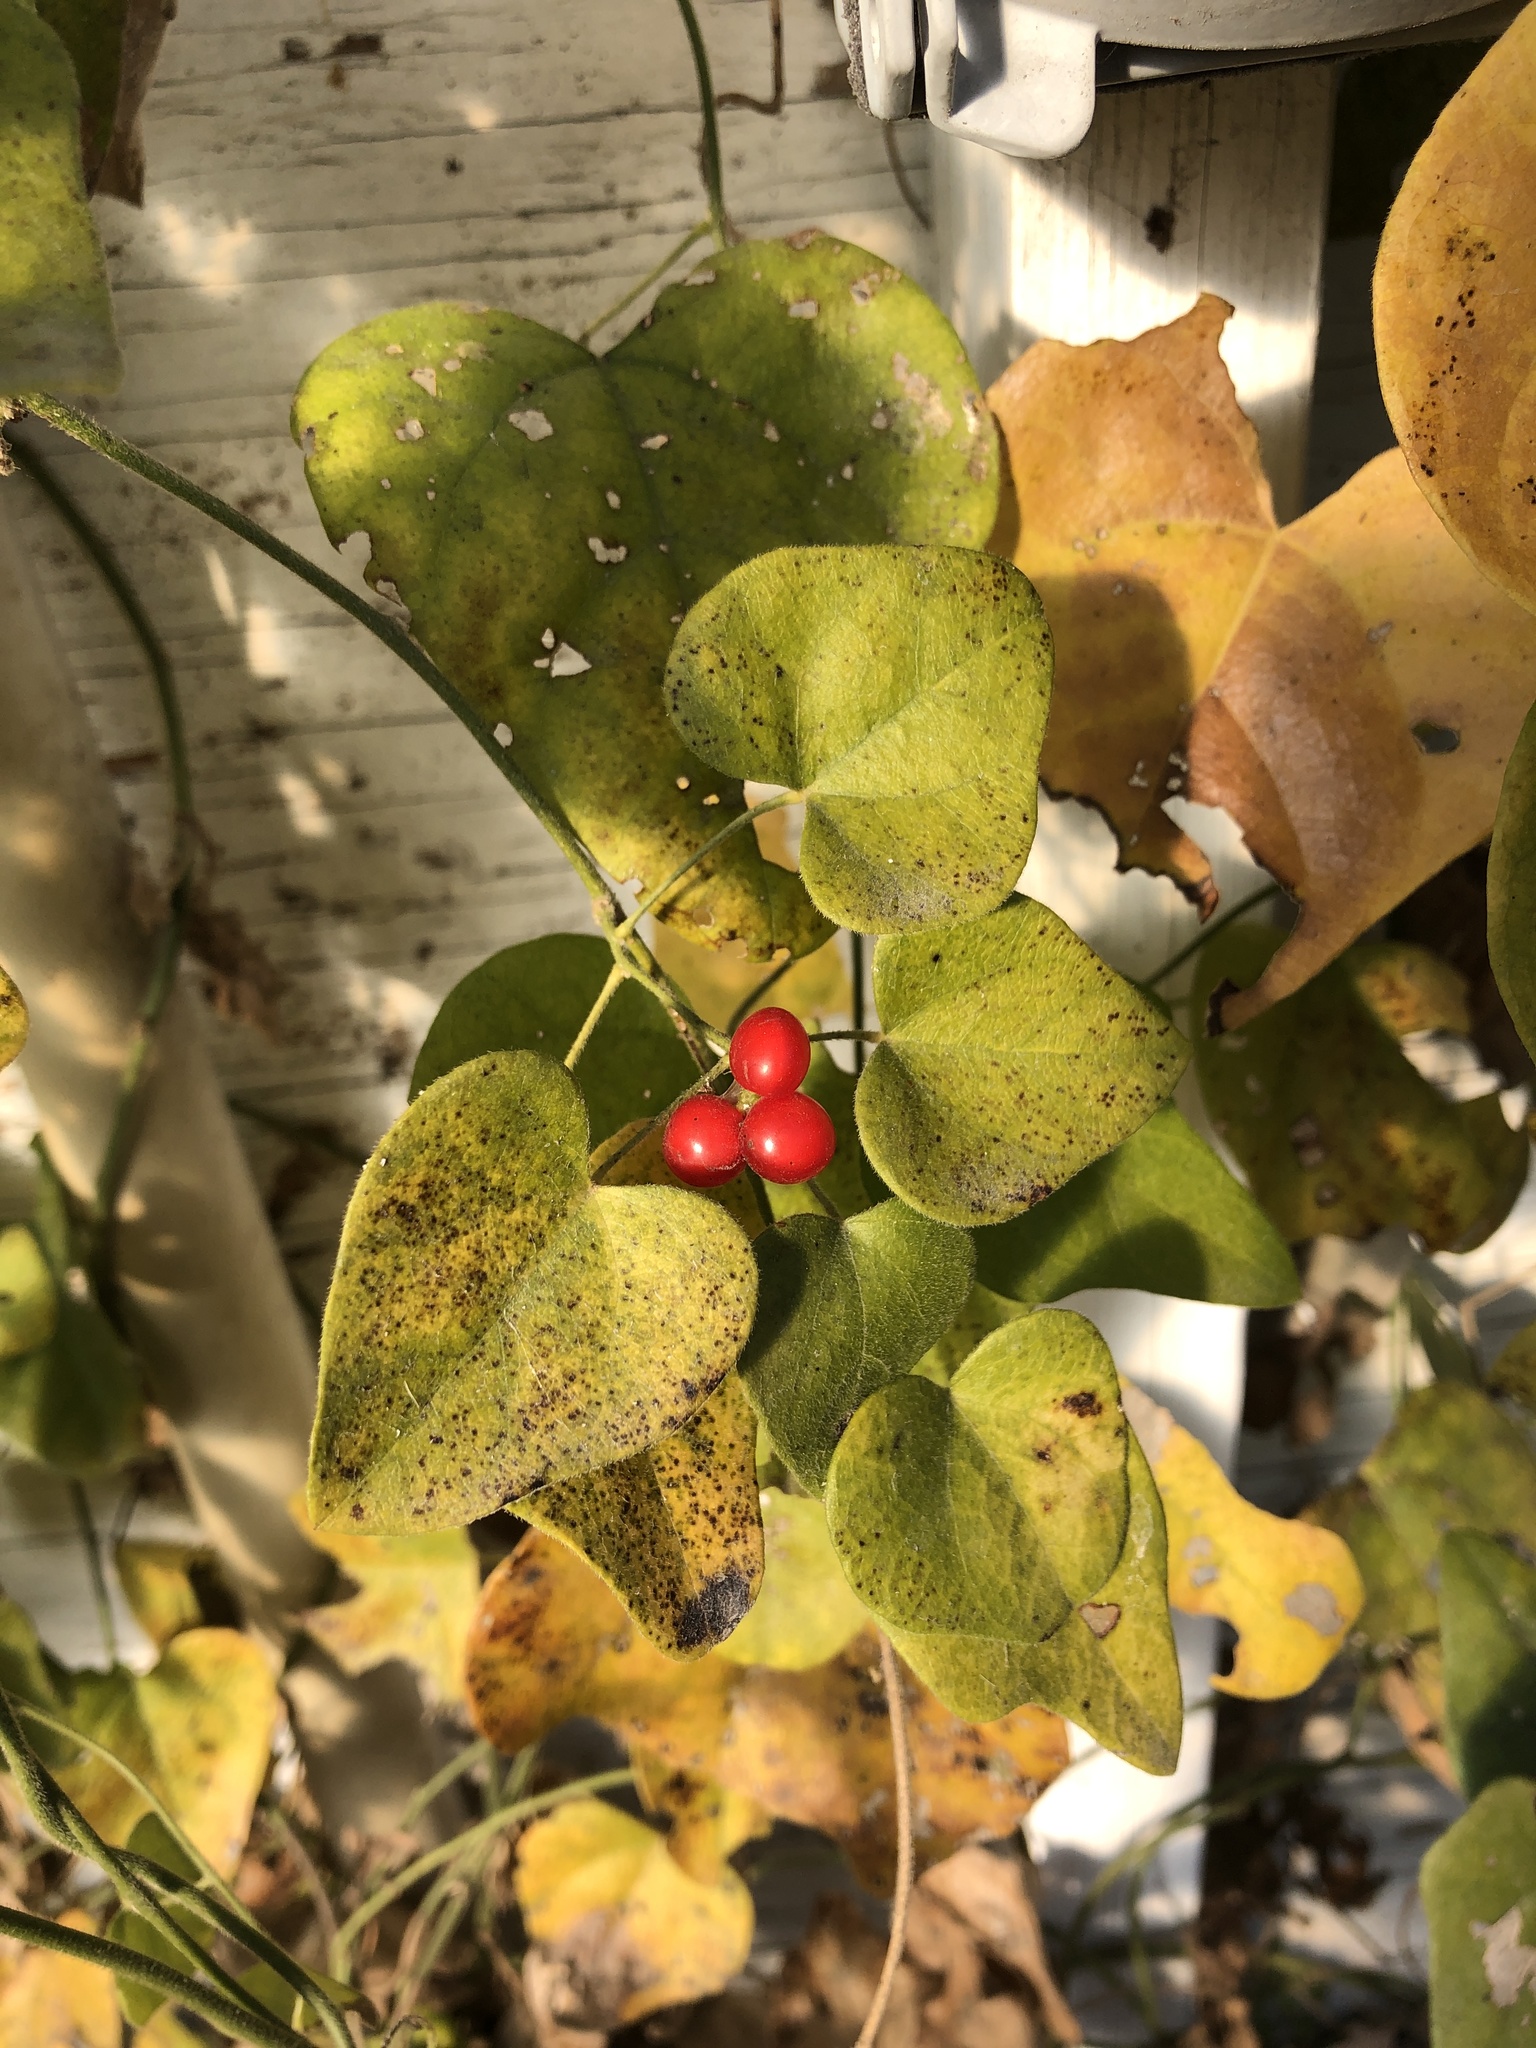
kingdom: Plantae
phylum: Tracheophyta
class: Magnoliopsida
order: Ranunculales
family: Menispermaceae
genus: Cocculus
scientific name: Cocculus carolinus
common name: Carolina moonseed
